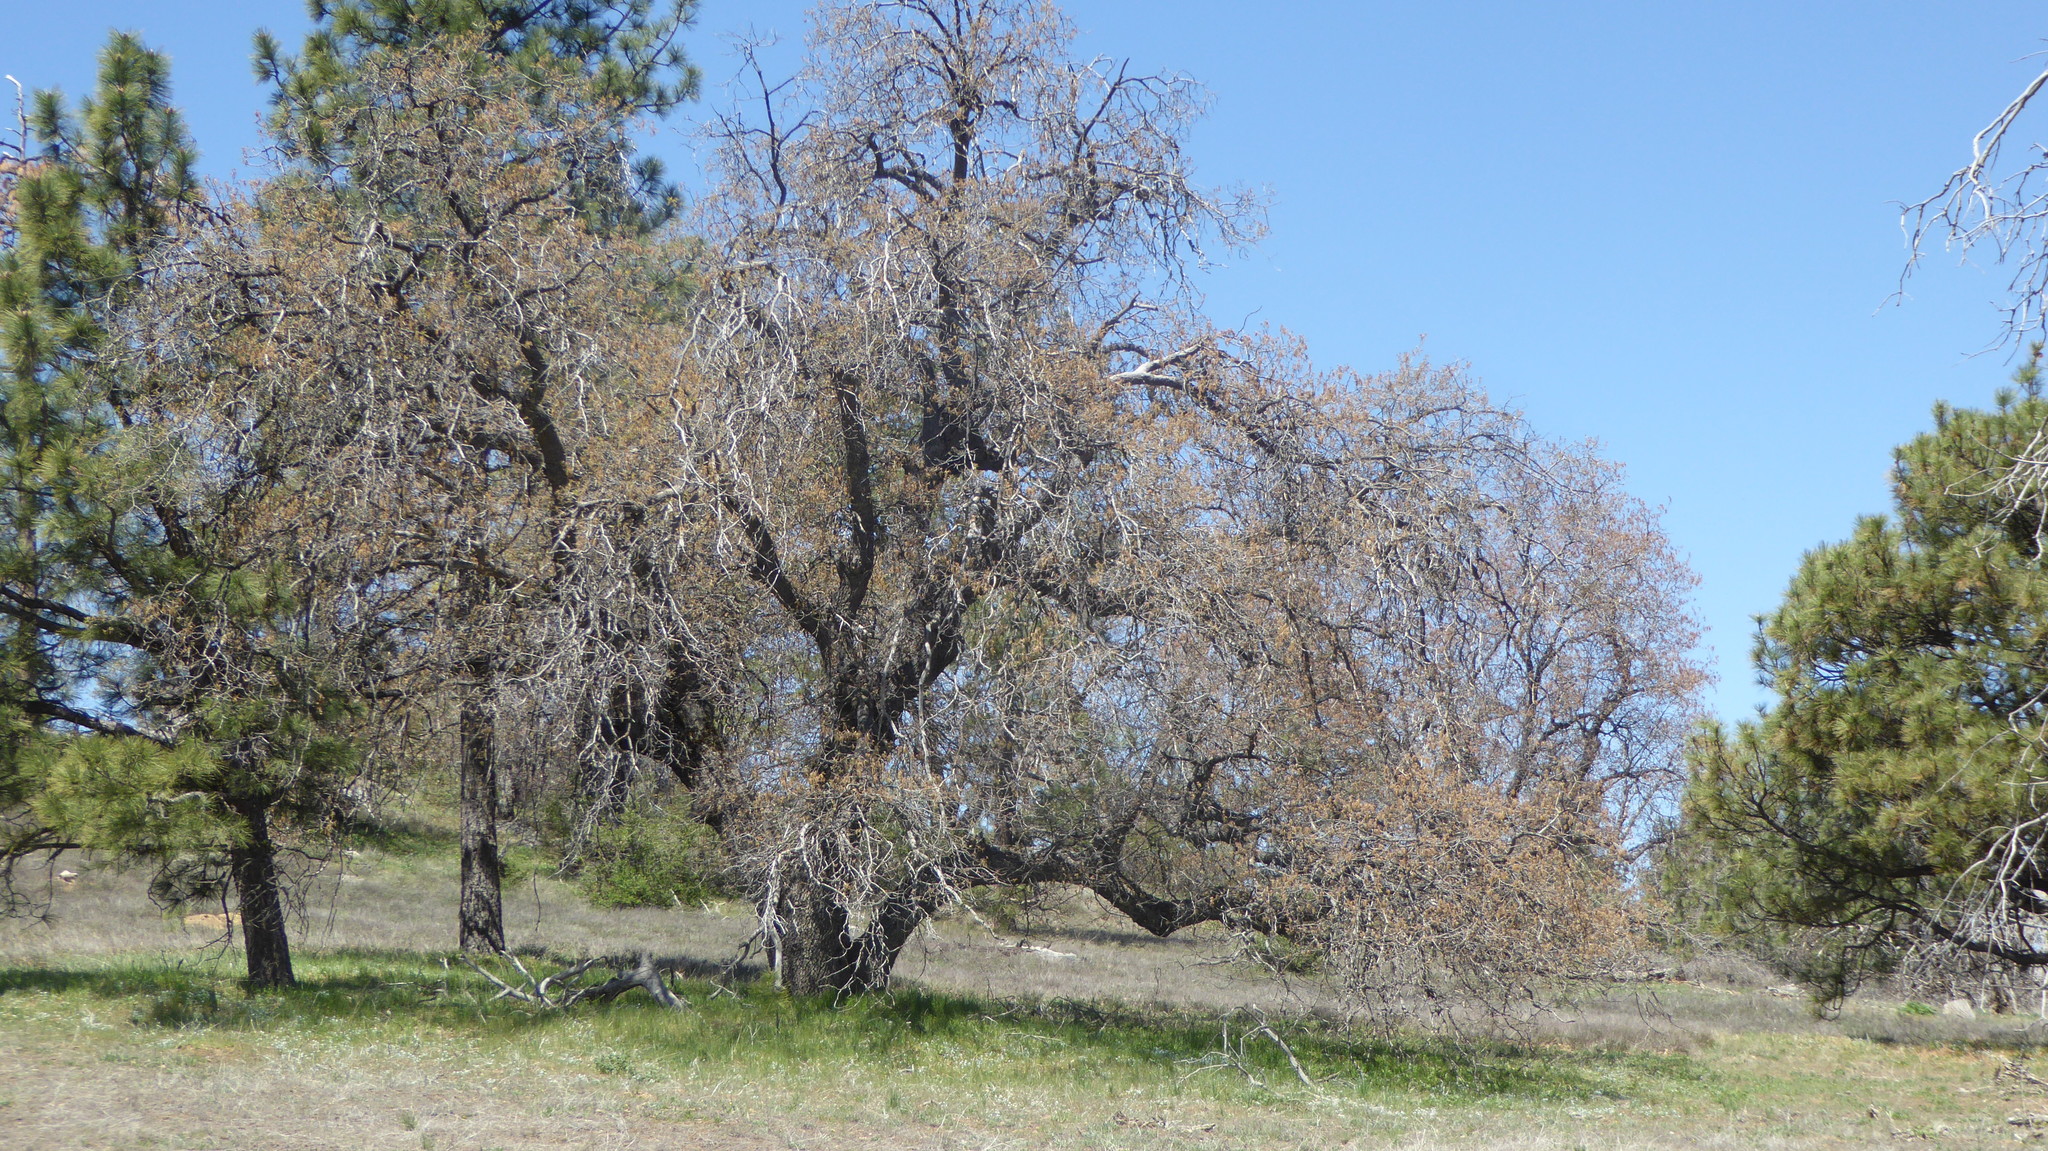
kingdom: Plantae
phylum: Tracheophyta
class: Magnoliopsida
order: Fagales
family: Fagaceae
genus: Quercus
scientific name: Quercus kelloggii
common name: California black oak
